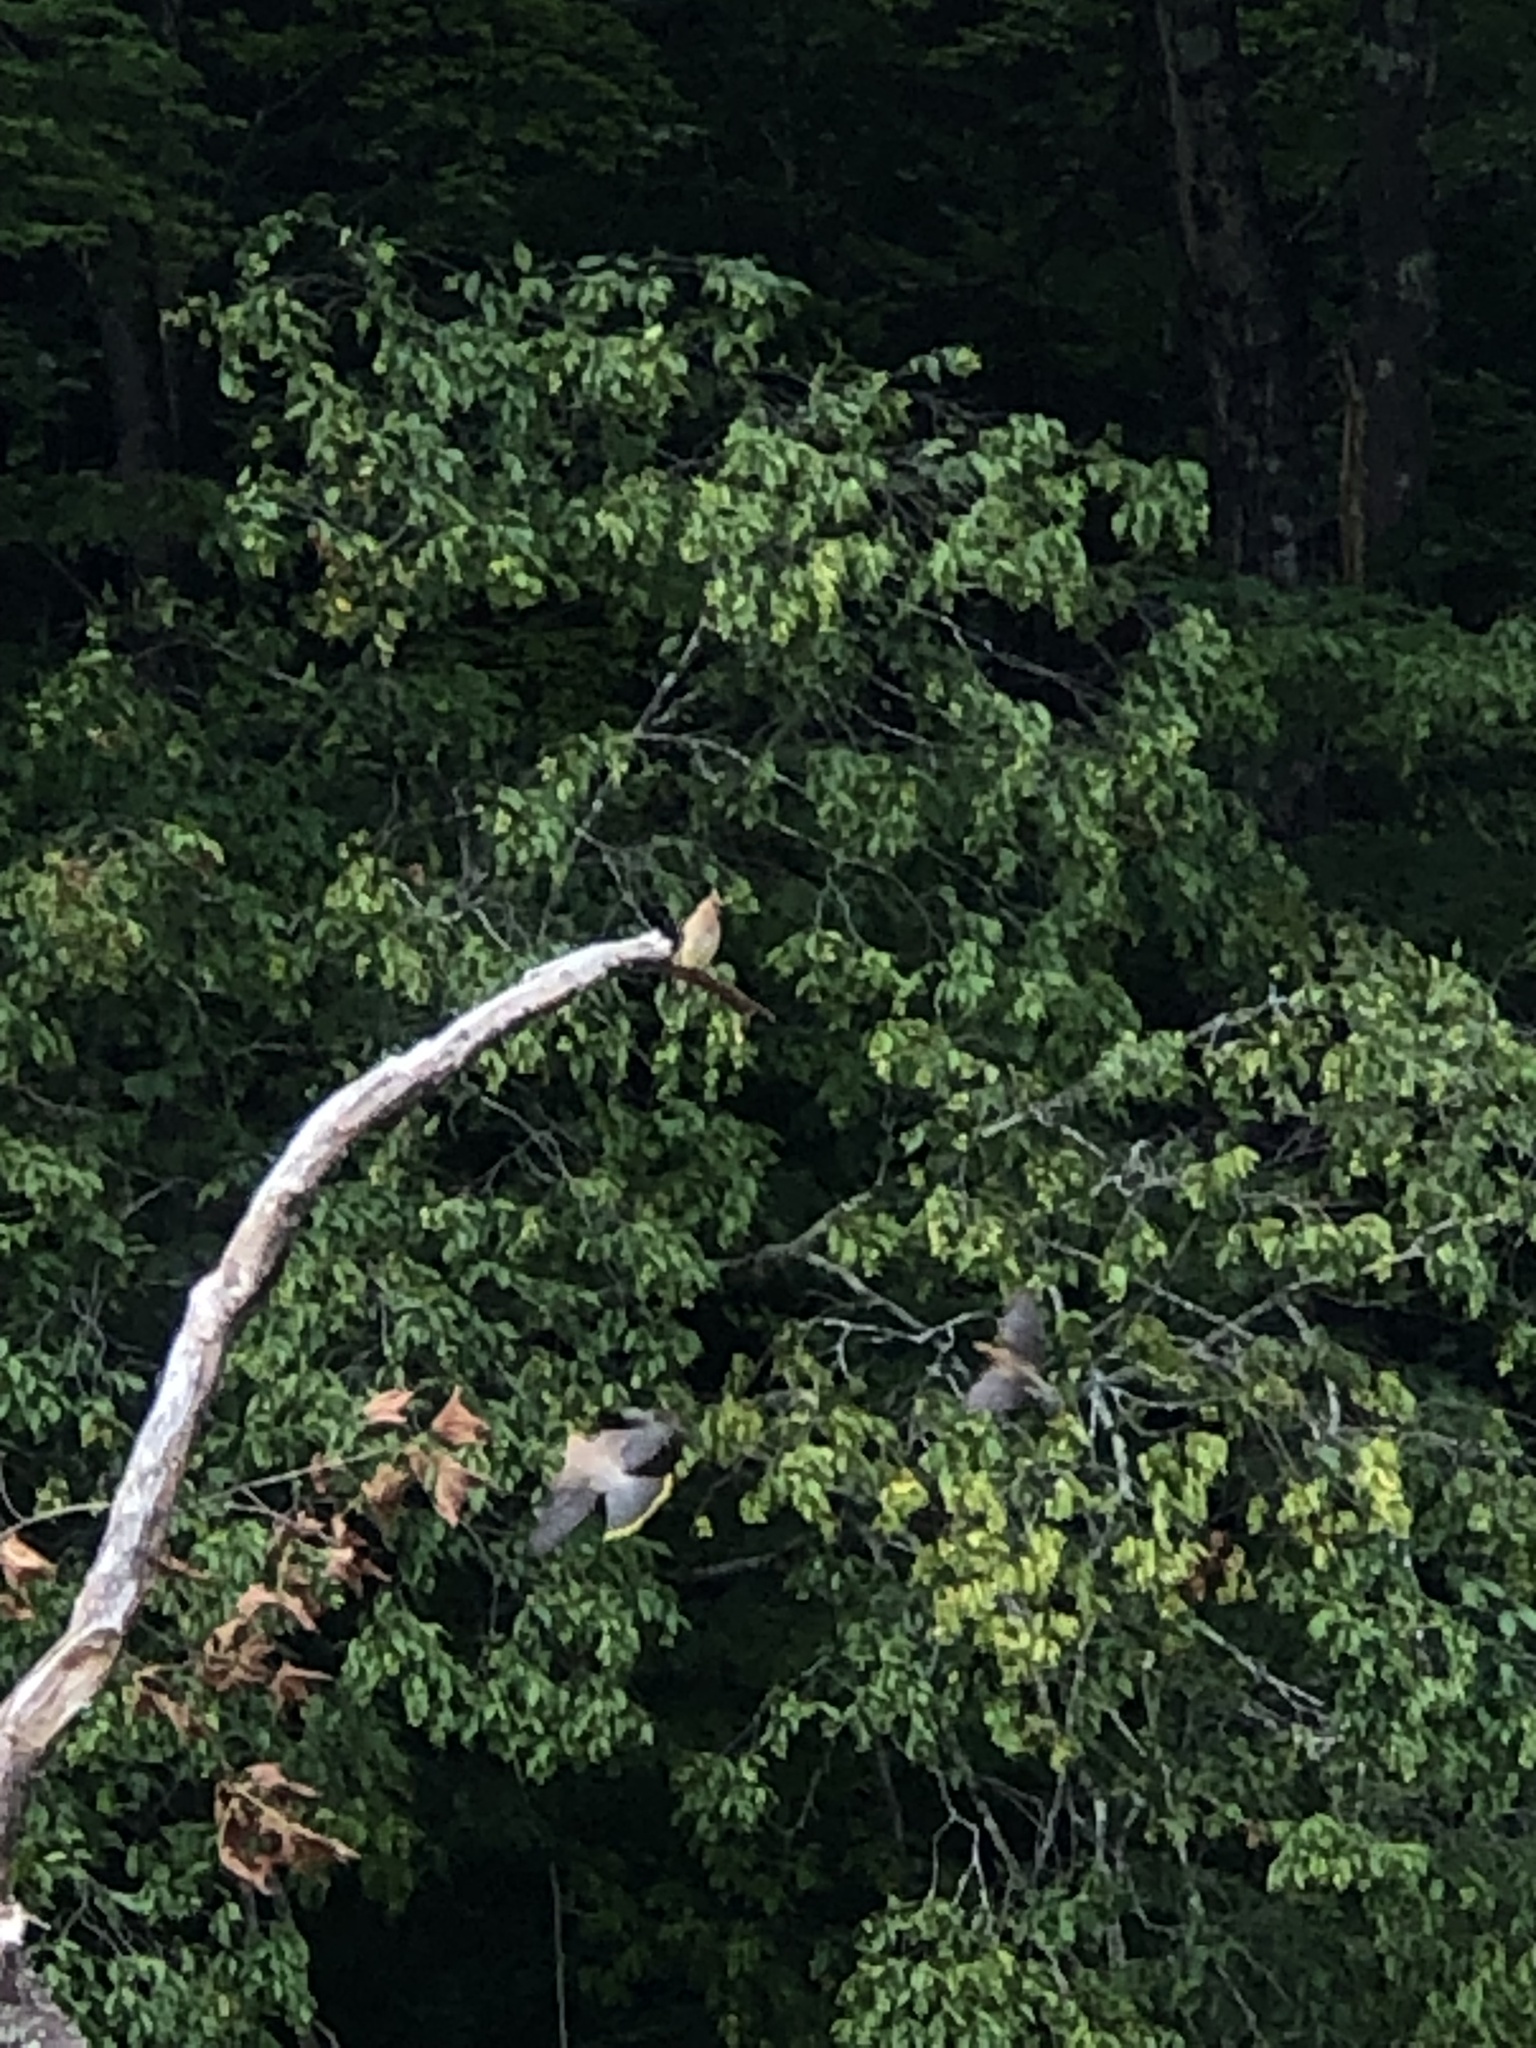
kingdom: Animalia
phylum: Chordata
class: Aves
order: Passeriformes
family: Bombycillidae
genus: Bombycilla
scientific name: Bombycilla cedrorum
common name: Cedar waxwing
